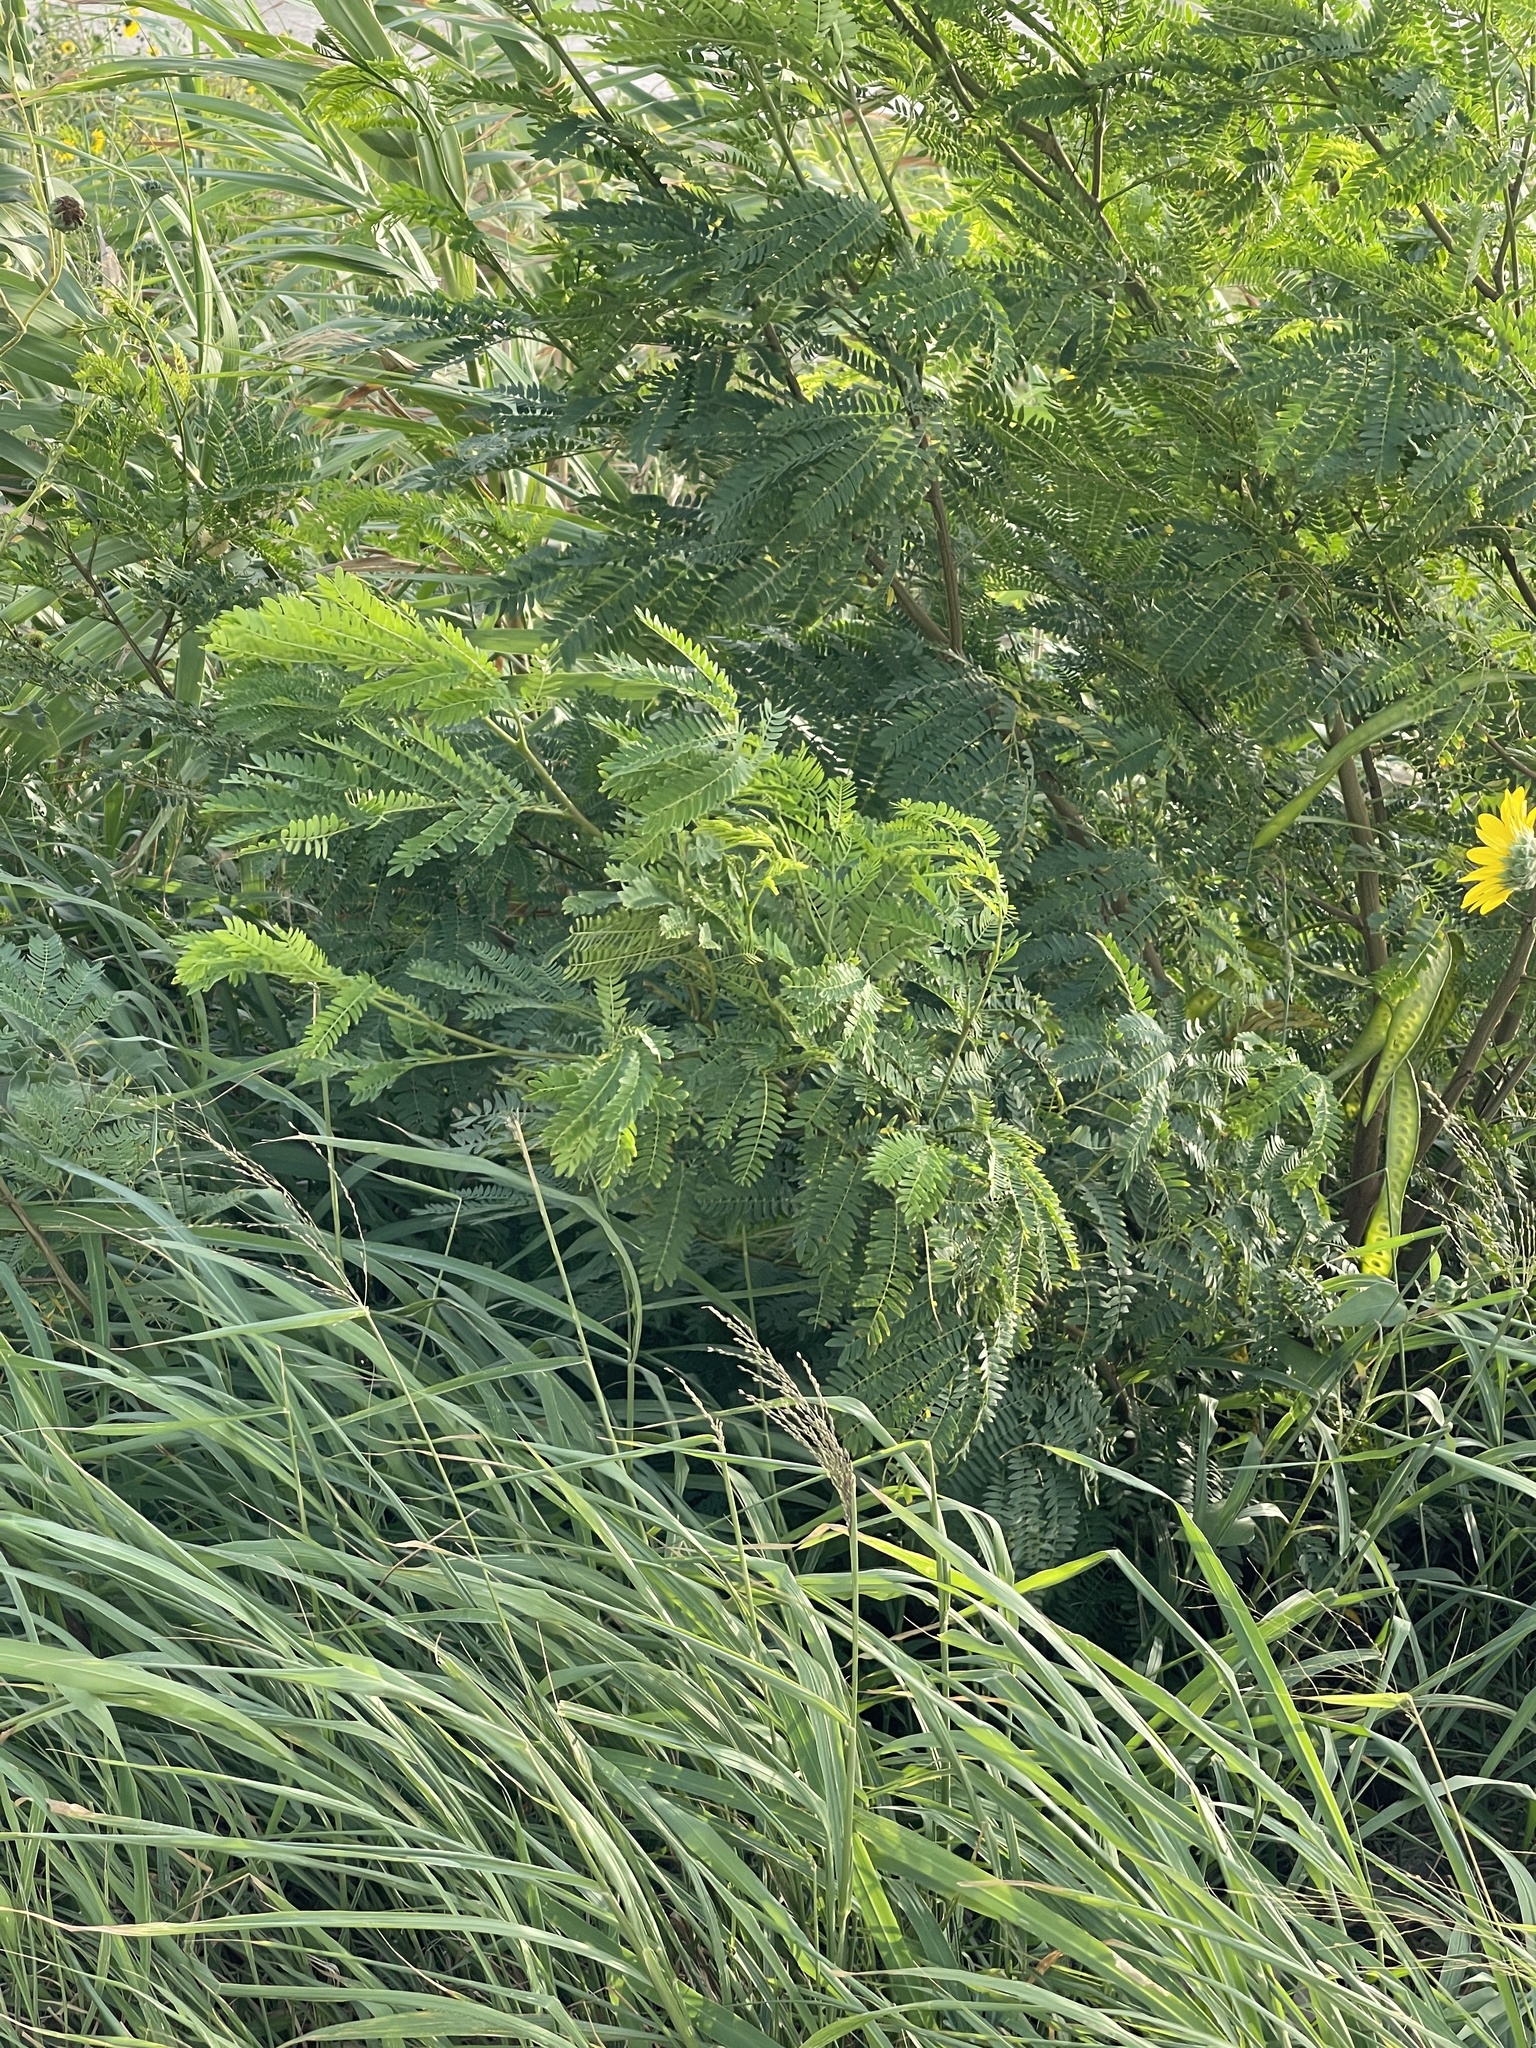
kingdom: Plantae
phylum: Tracheophyta
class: Magnoliopsida
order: Fabales
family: Fabaceae
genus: Leucaena
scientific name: Leucaena leucocephala
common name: White leadtree
